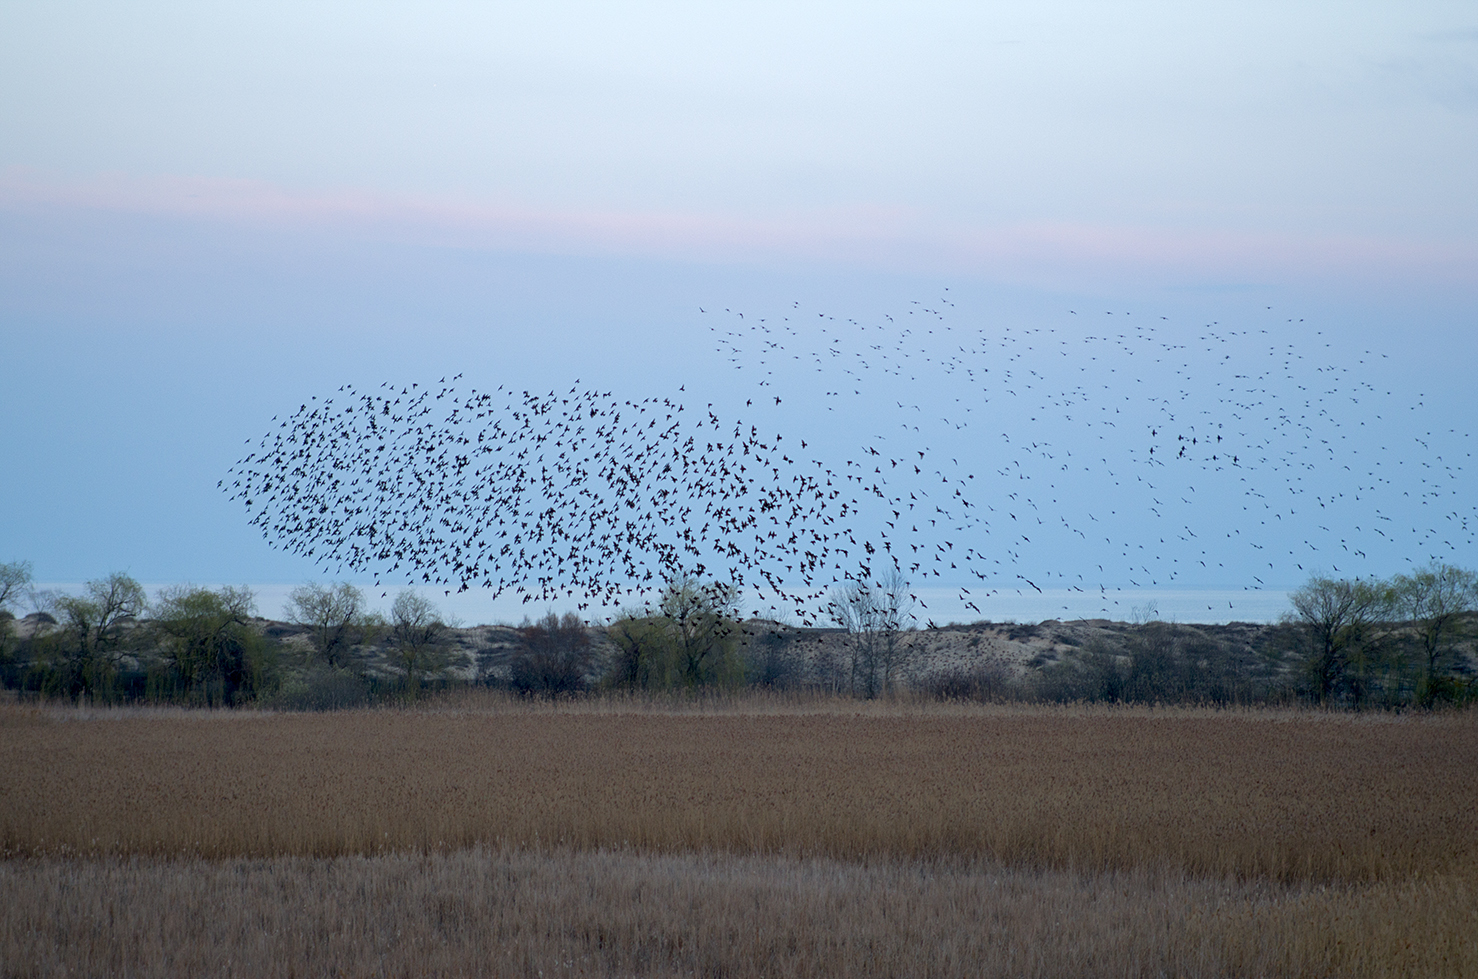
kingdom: Animalia
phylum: Chordata
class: Aves
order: Passeriformes
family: Sturnidae
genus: Sturnus
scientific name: Sturnus vulgaris
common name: Common starling
